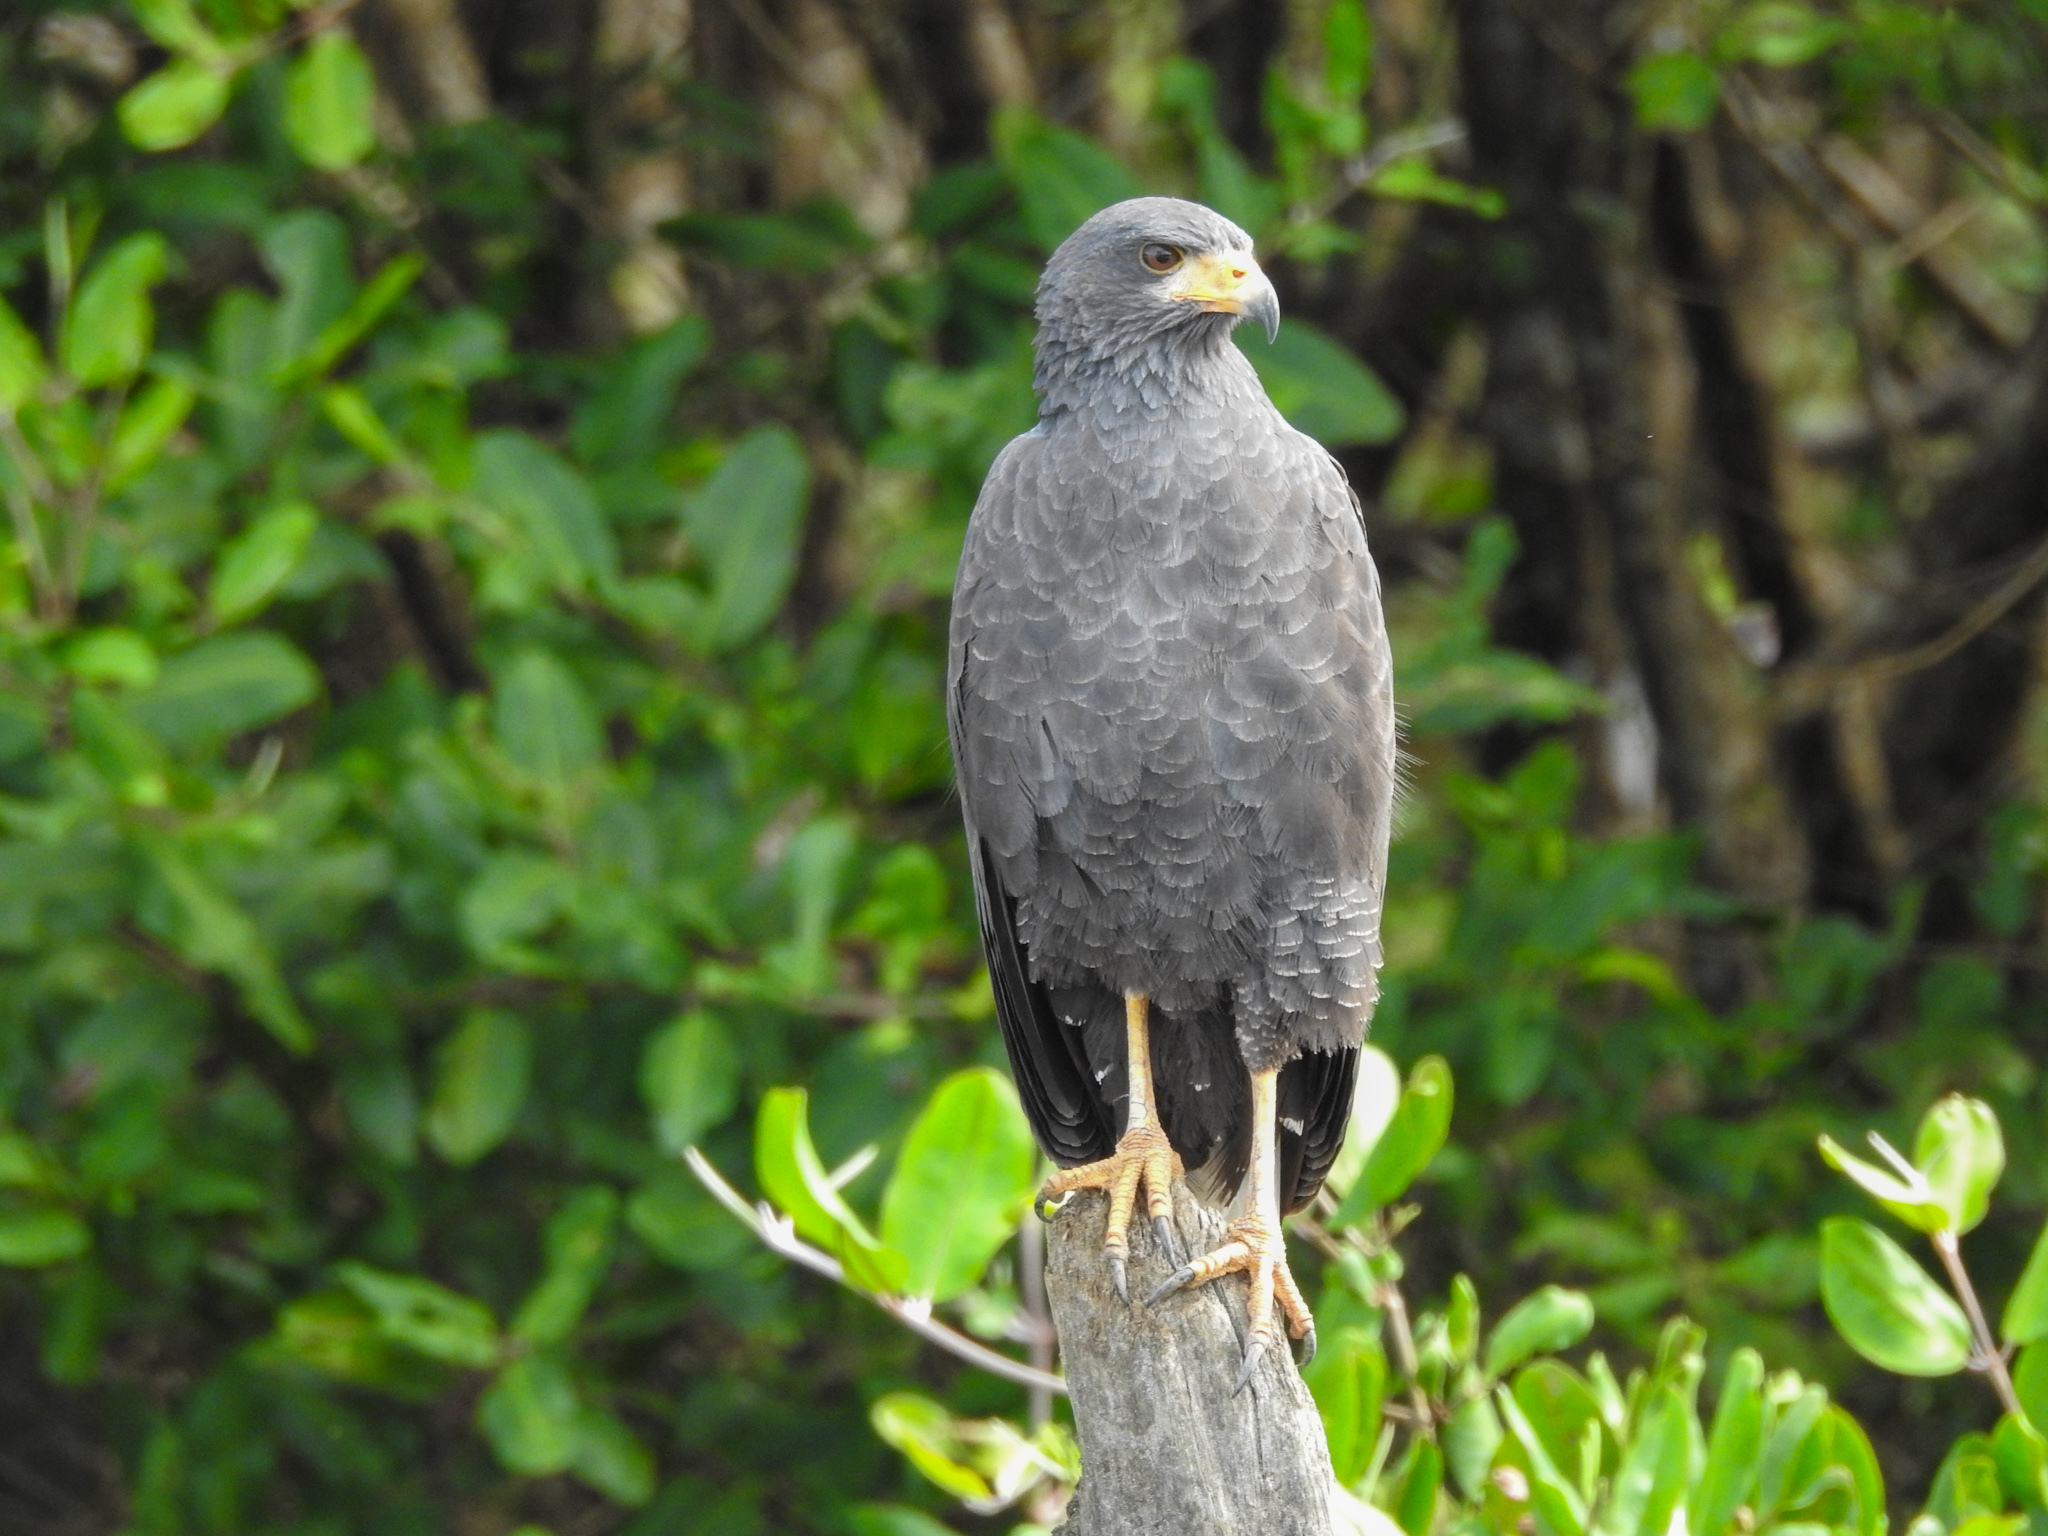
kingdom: Animalia
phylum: Chordata
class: Aves
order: Accipitriformes
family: Accipitridae
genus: Buteogallus
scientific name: Buteogallus anthracinus
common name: Common black hawk
